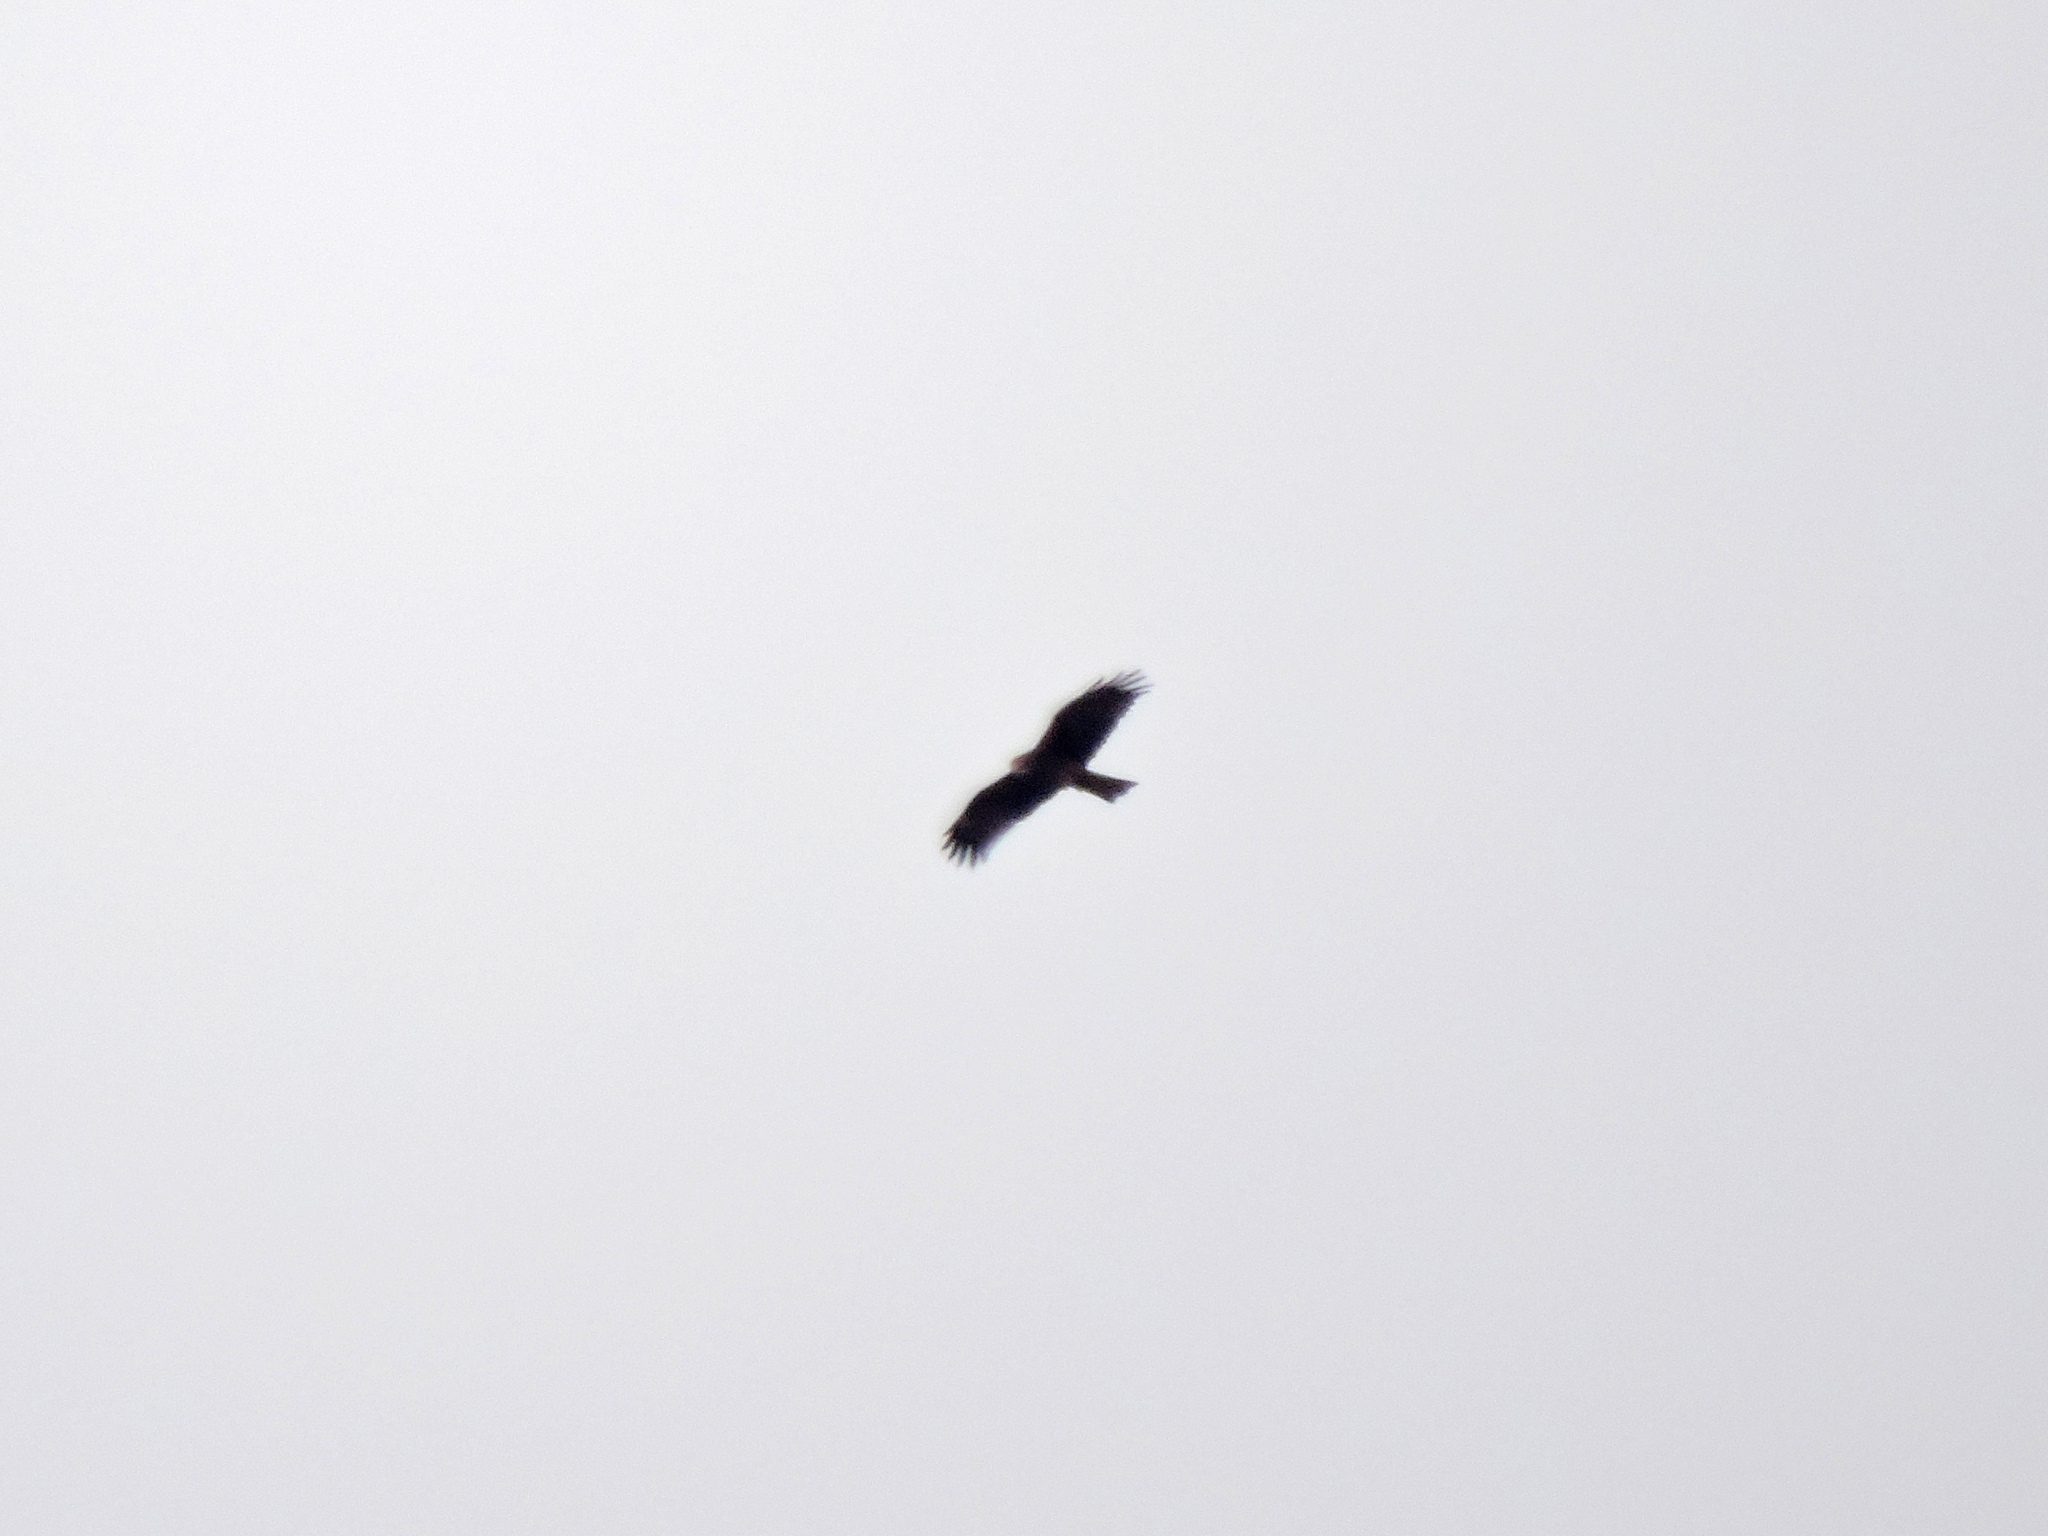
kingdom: Animalia
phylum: Chordata
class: Aves
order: Accipitriformes
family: Accipitridae
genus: Milvus
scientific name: Milvus migrans
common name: Black kite
